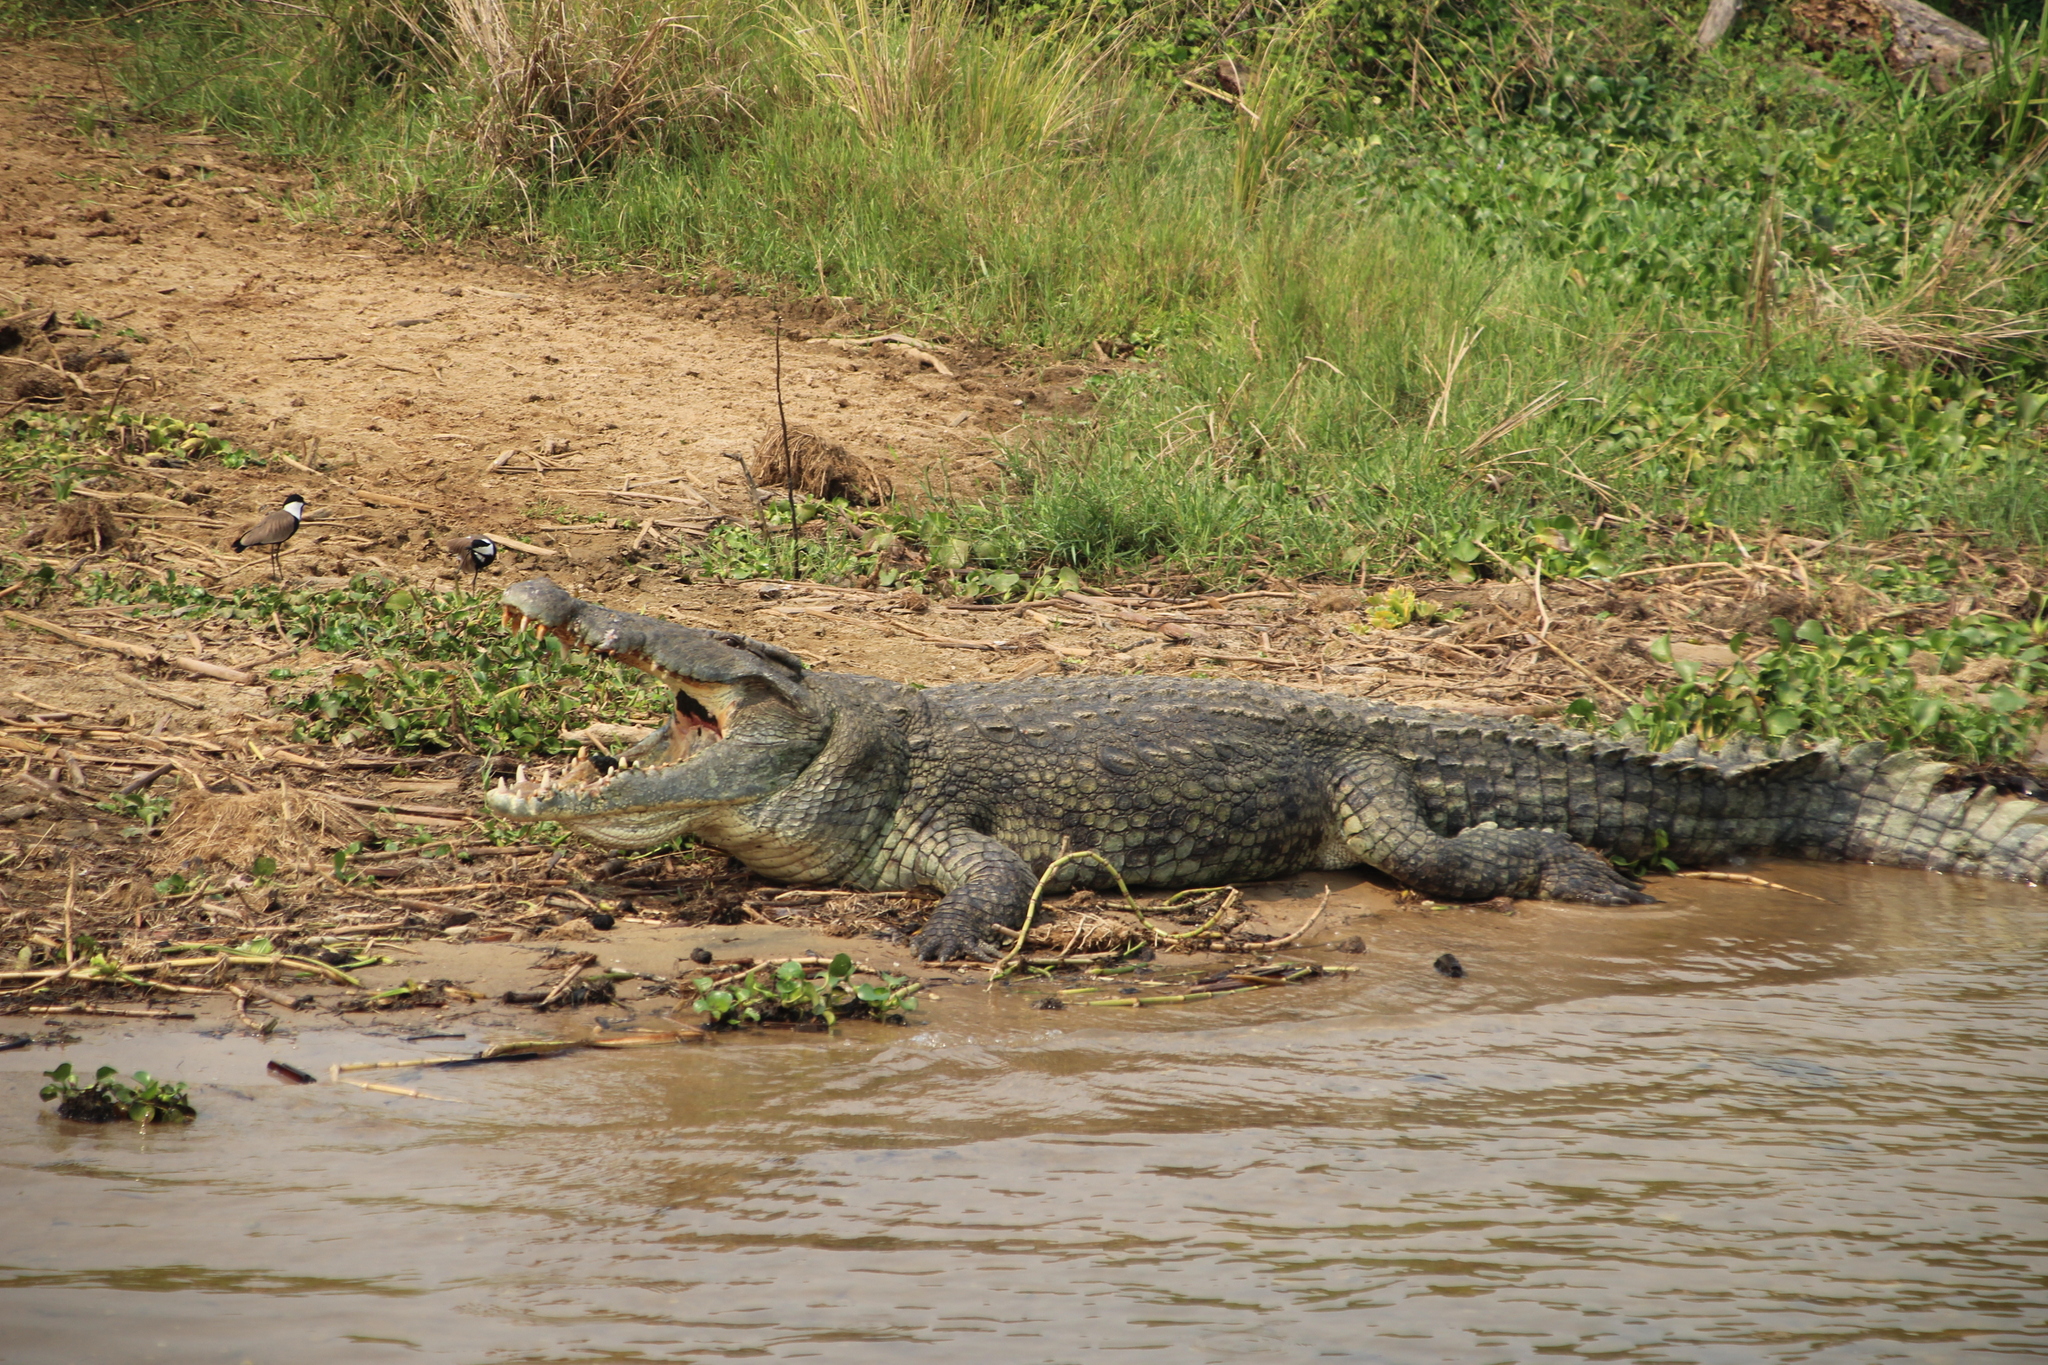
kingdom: Animalia
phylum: Chordata
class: Crocodylia
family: Crocodylidae
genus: Crocodylus
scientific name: Crocodylus niloticus
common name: Nile crocodile
